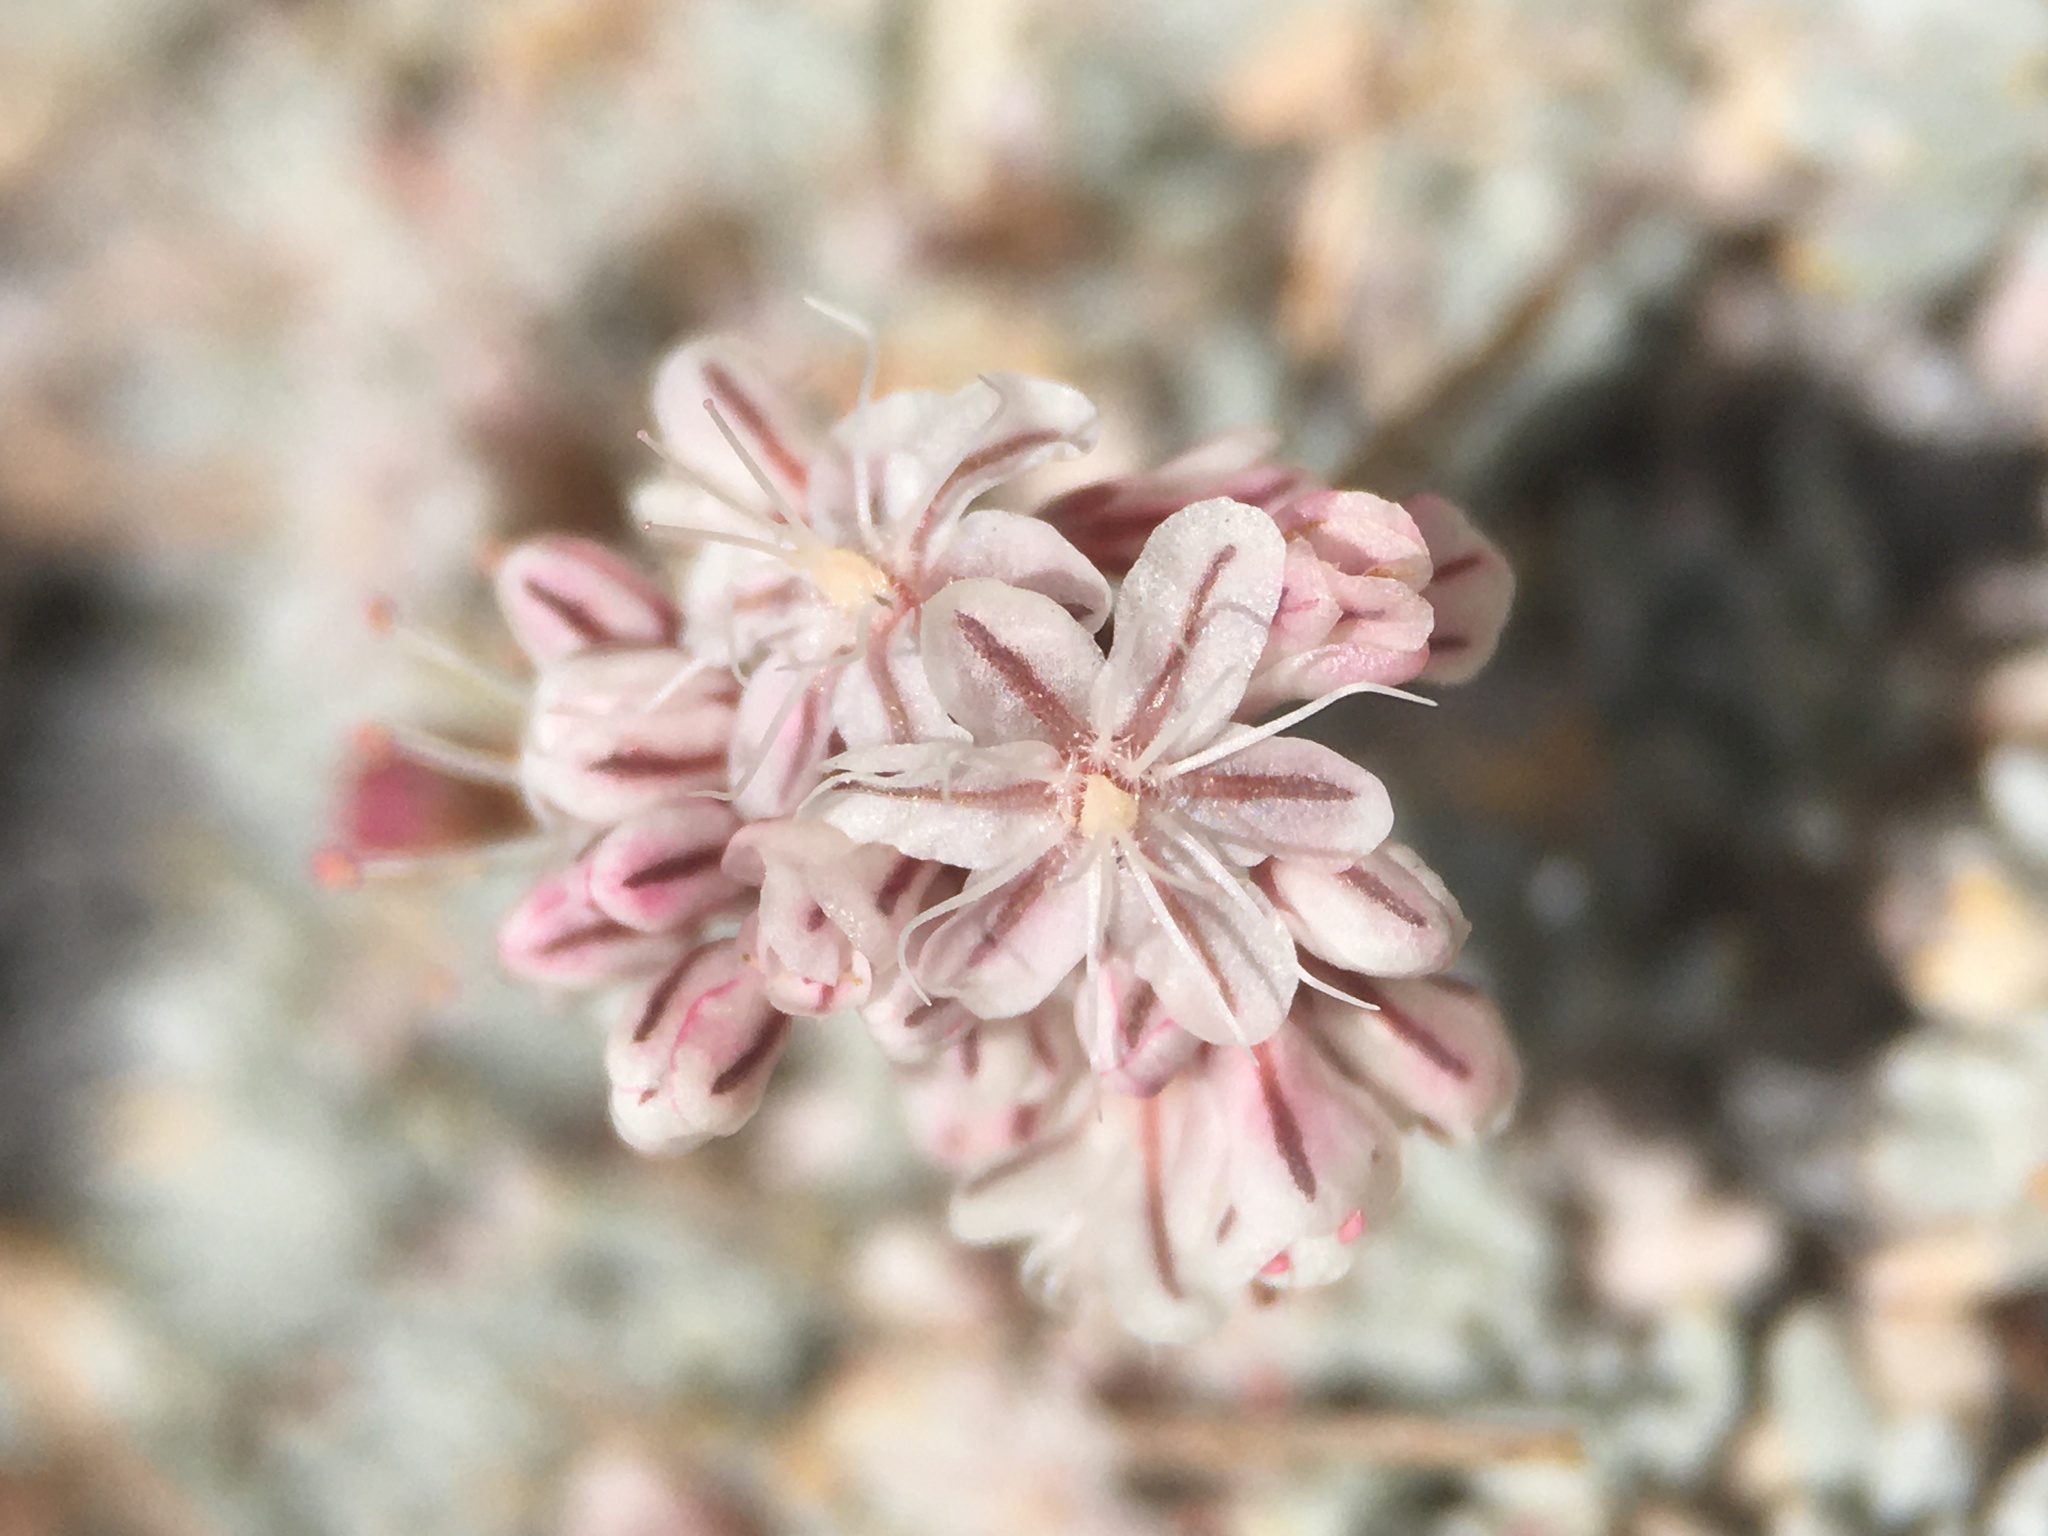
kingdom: Plantae
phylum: Tracheophyta
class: Magnoliopsida
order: Caryophyllales
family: Polygonaceae
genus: Eriogonum
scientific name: Eriogonum wrightii
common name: Bastard-sage
